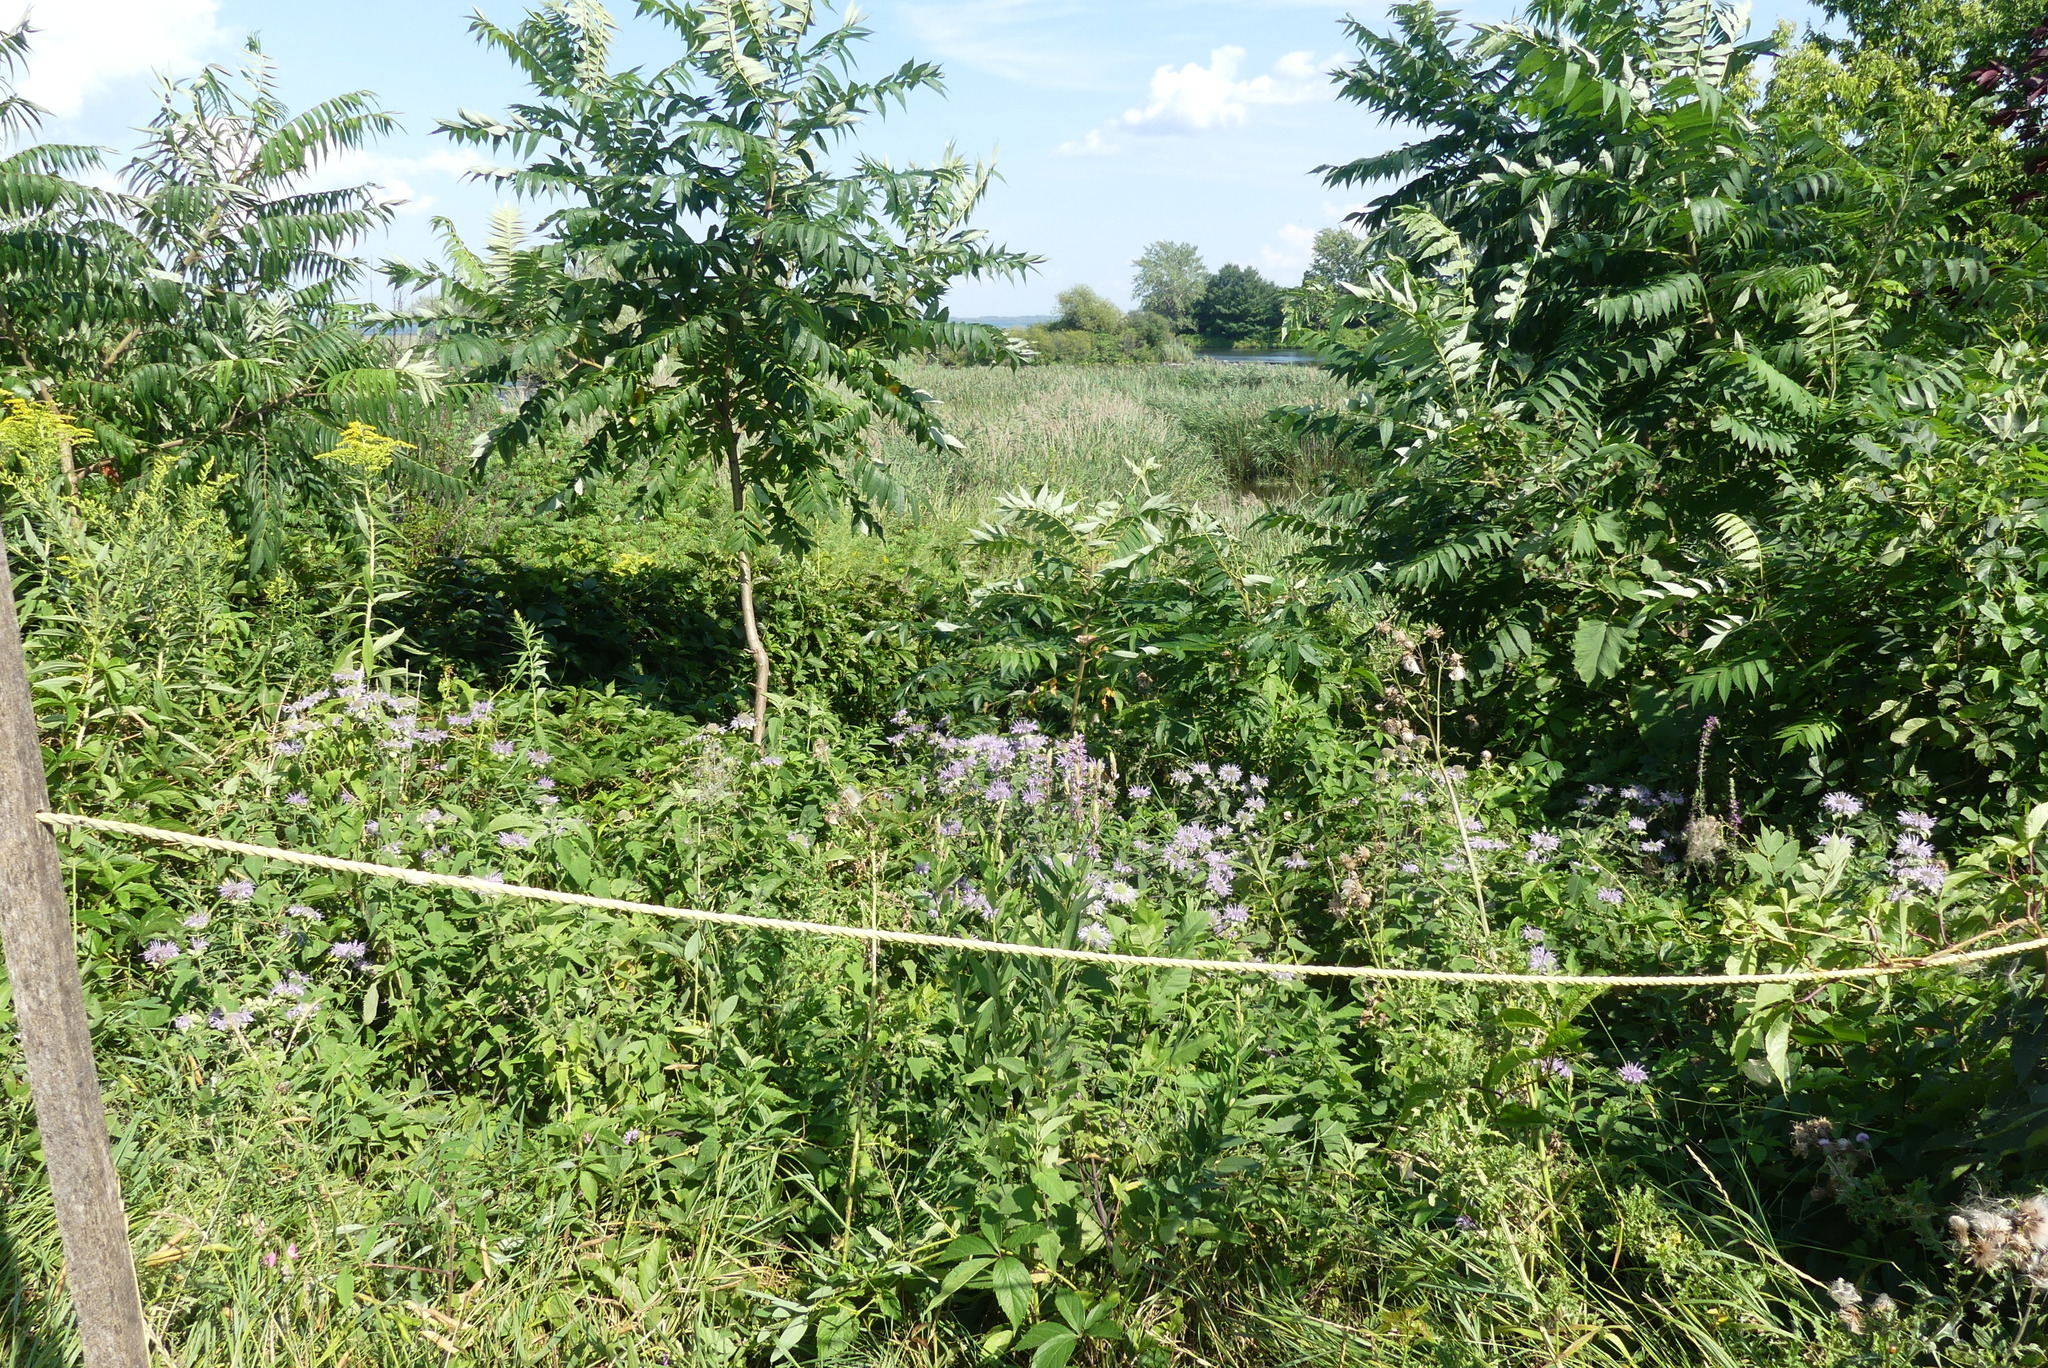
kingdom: Plantae
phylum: Tracheophyta
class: Magnoliopsida
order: Lamiales
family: Lamiaceae
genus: Monarda
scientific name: Monarda fistulosa
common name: Purple beebalm
